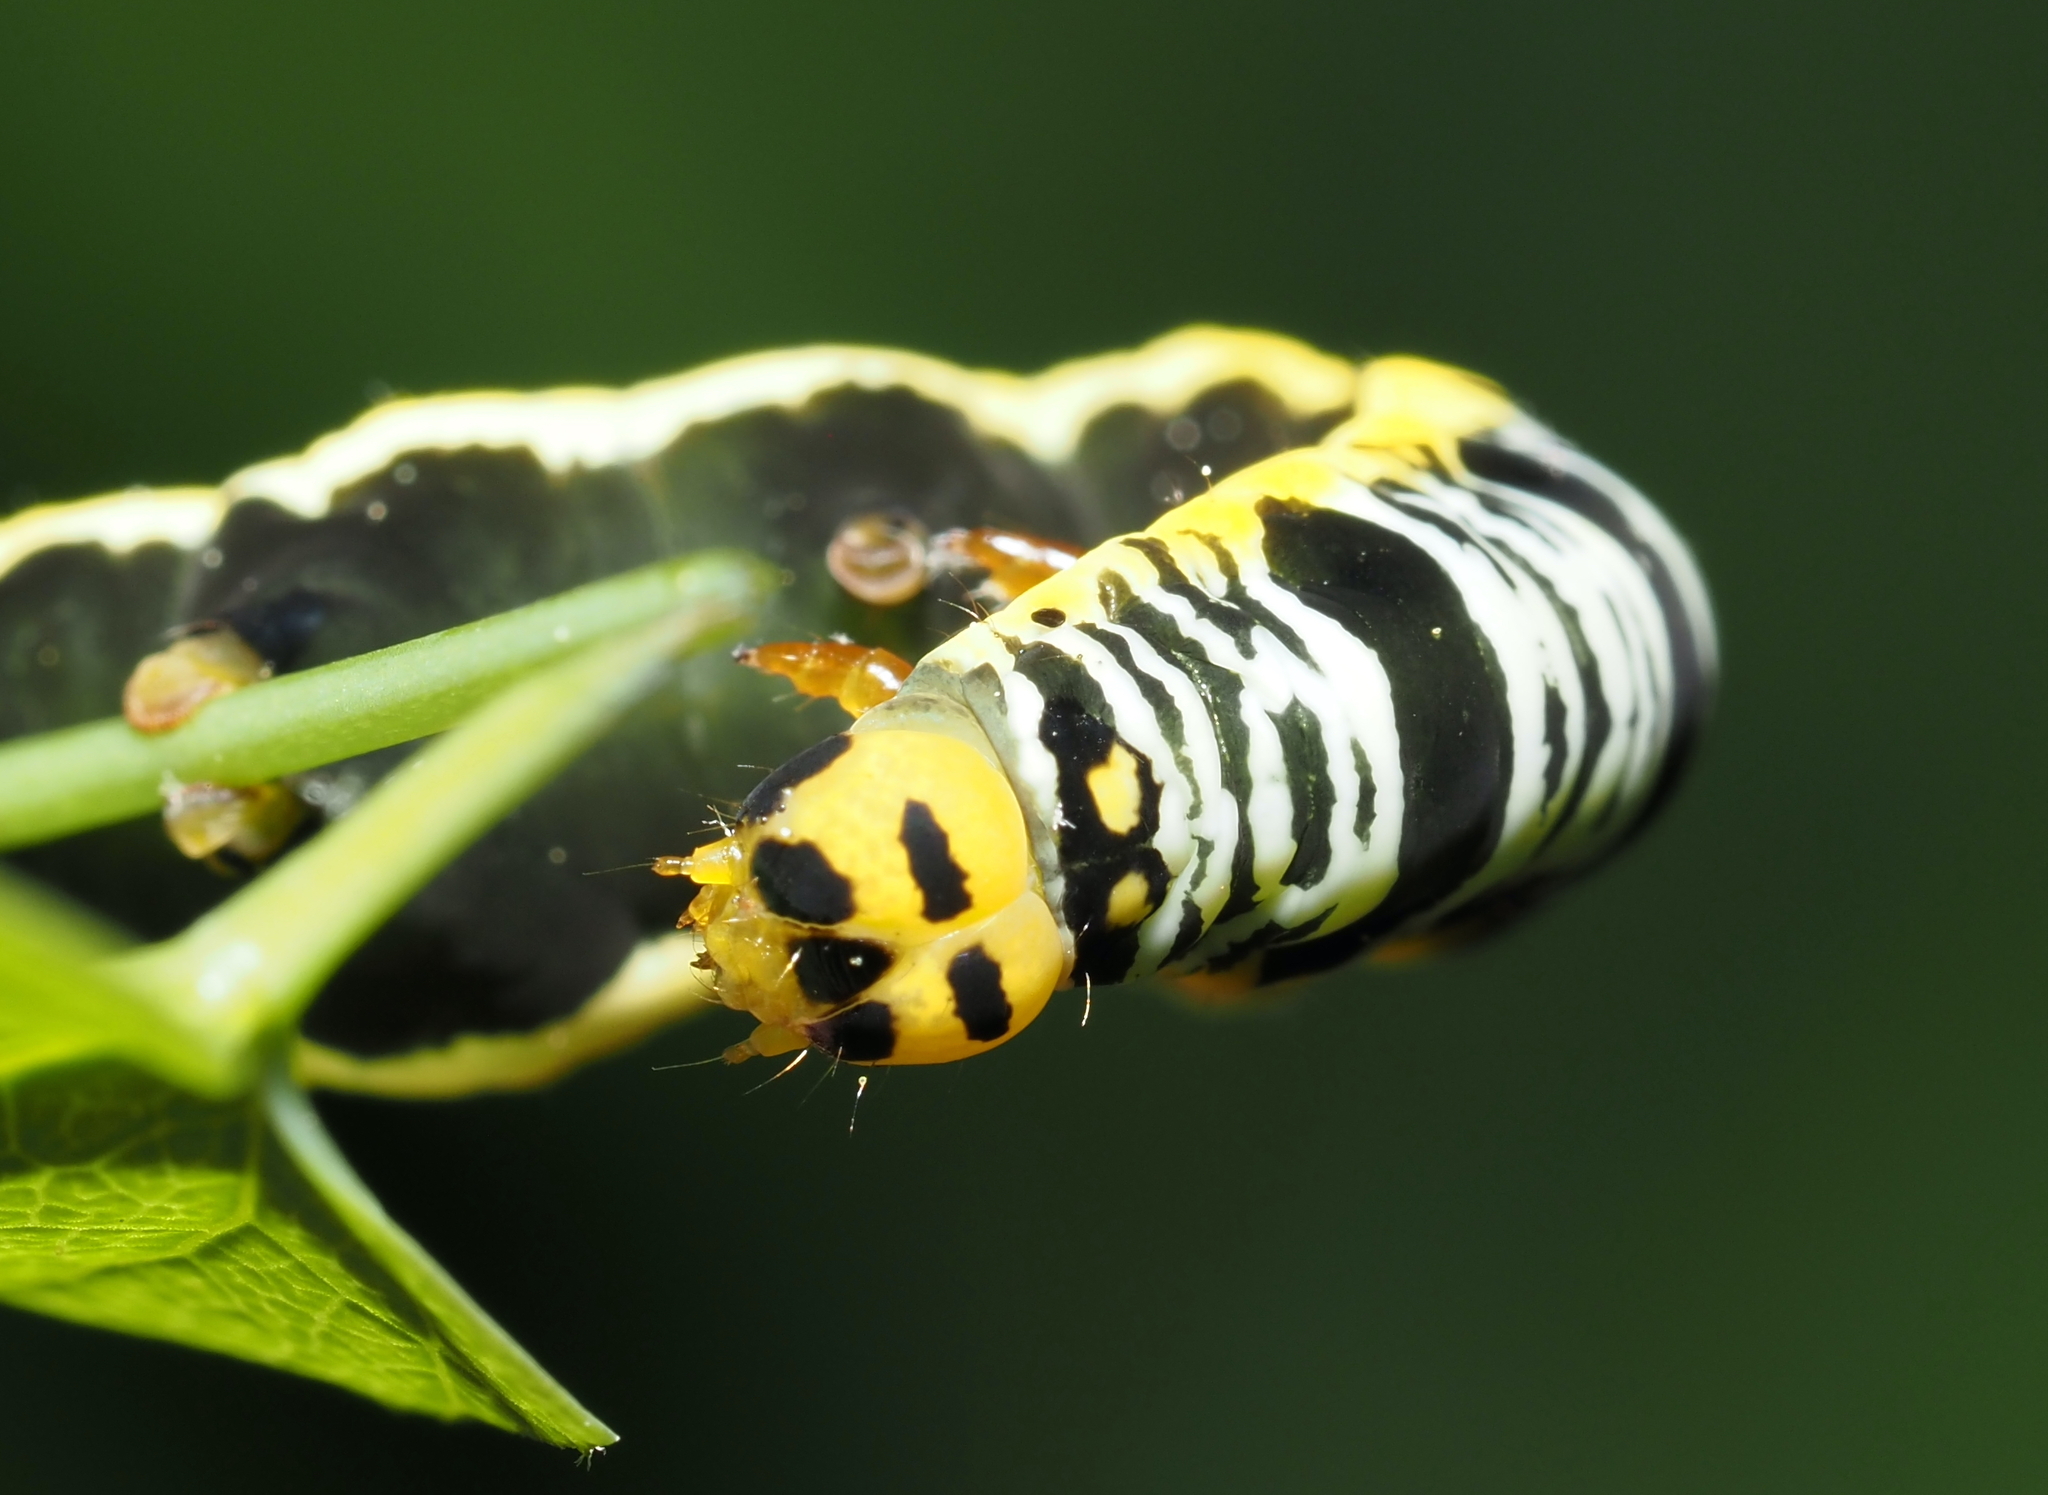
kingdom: Animalia
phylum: Arthropoda
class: Insecta
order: Lepidoptera
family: Erebidae
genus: Calyptra
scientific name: Calyptra canadensis
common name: Canadian owlet
